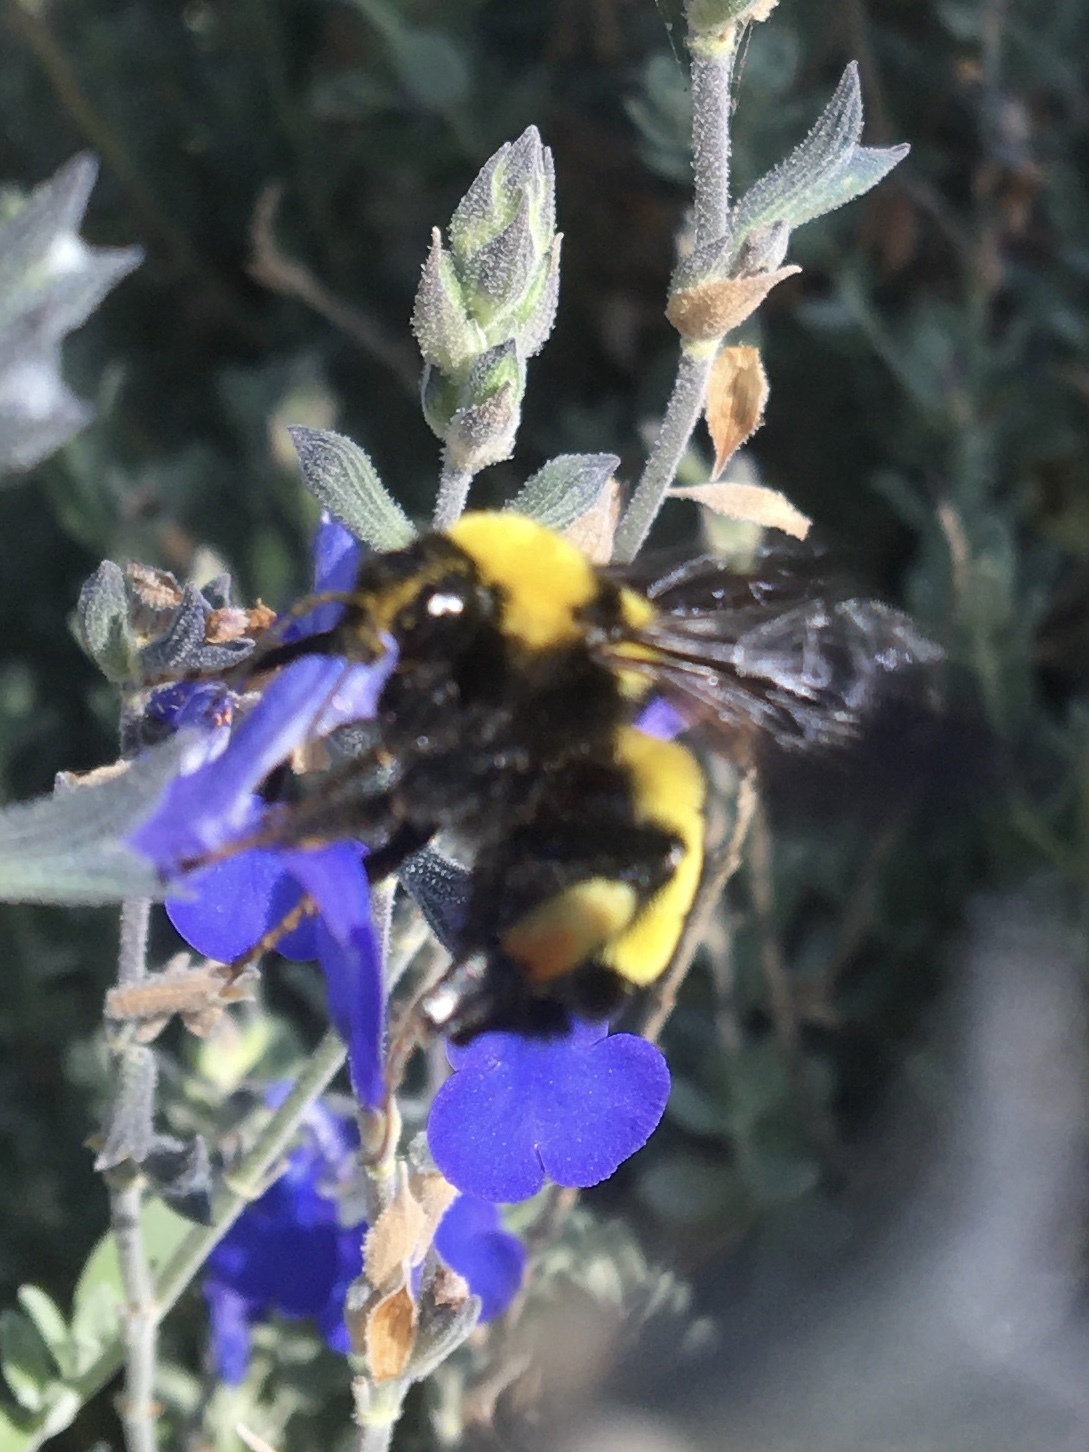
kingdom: Animalia
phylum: Arthropoda
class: Insecta
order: Hymenoptera
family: Apidae
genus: Bombus
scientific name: Bombus sonorus
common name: Sonoran bumble bee
